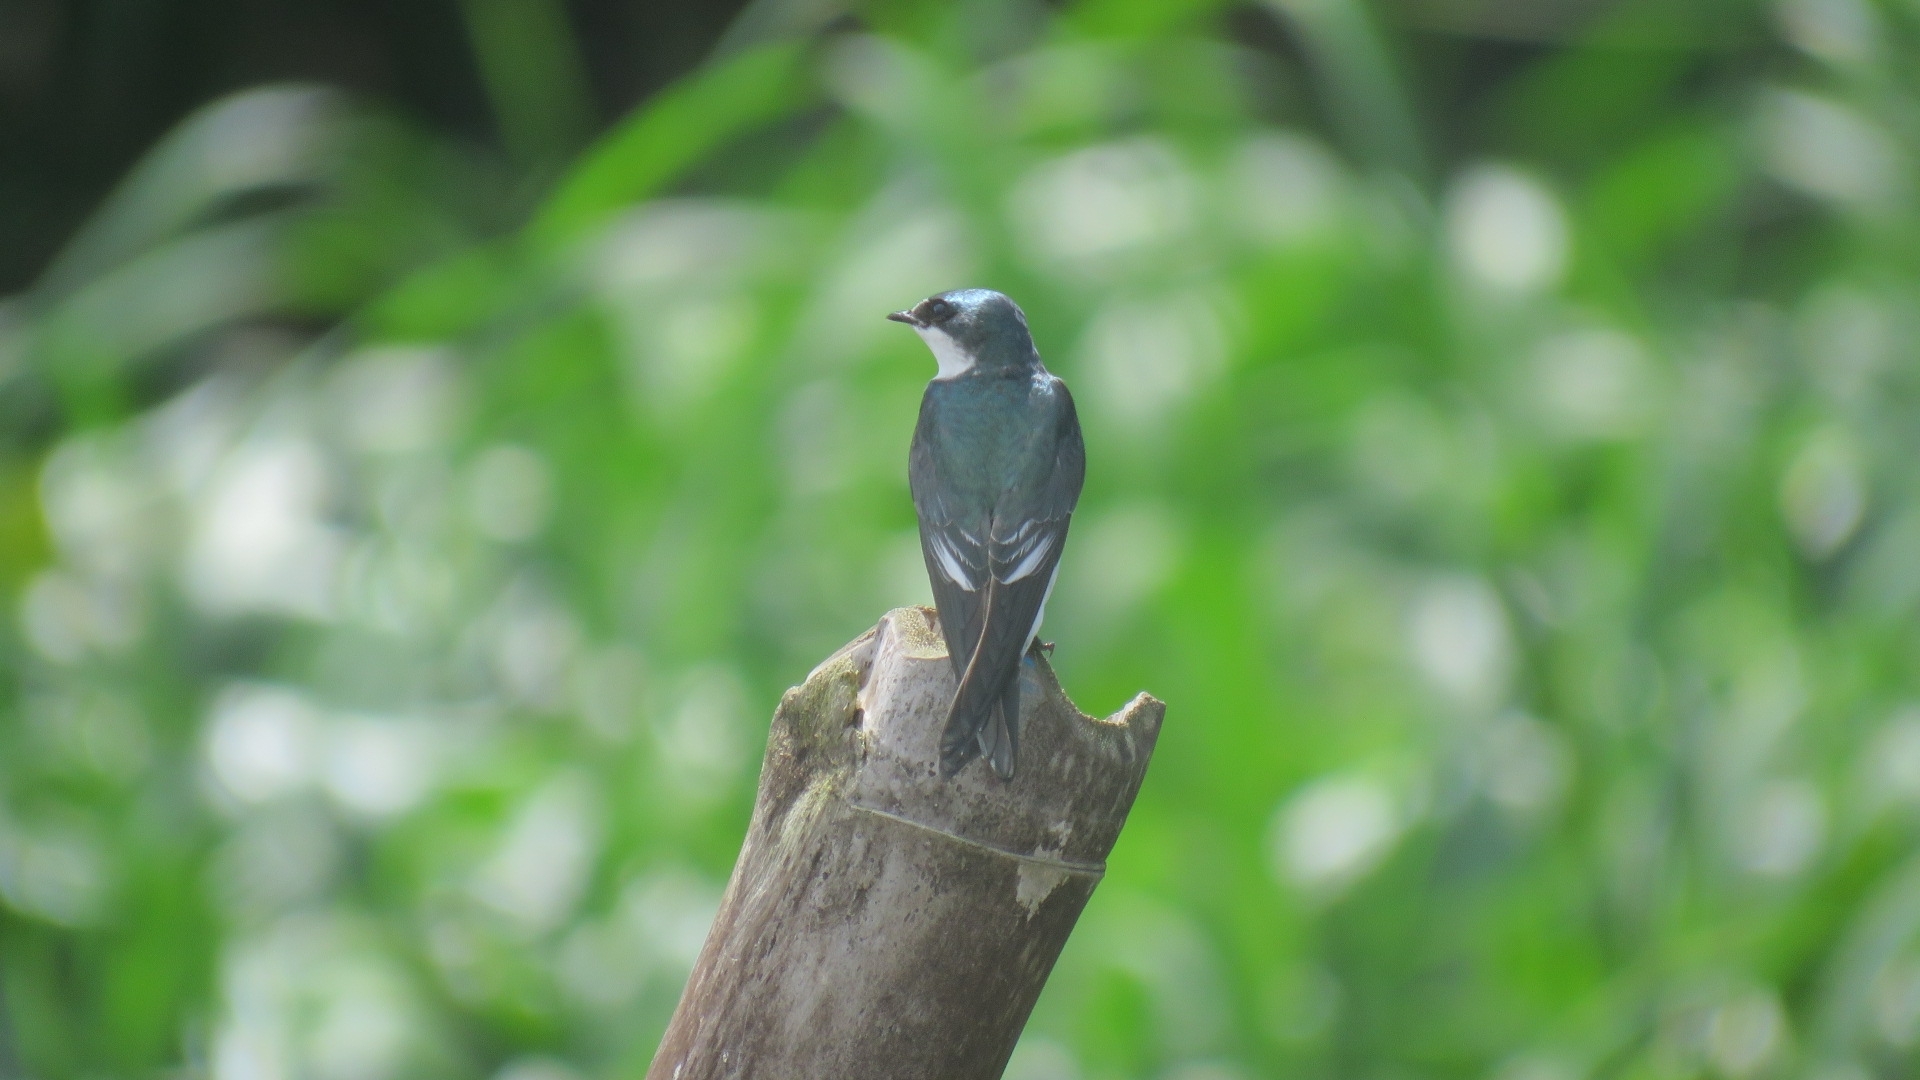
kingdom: Animalia
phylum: Chordata
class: Aves
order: Passeriformes
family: Hirundinidae
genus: Tachycineta
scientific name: Tachycineta albilinea
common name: Mangrove swallow
